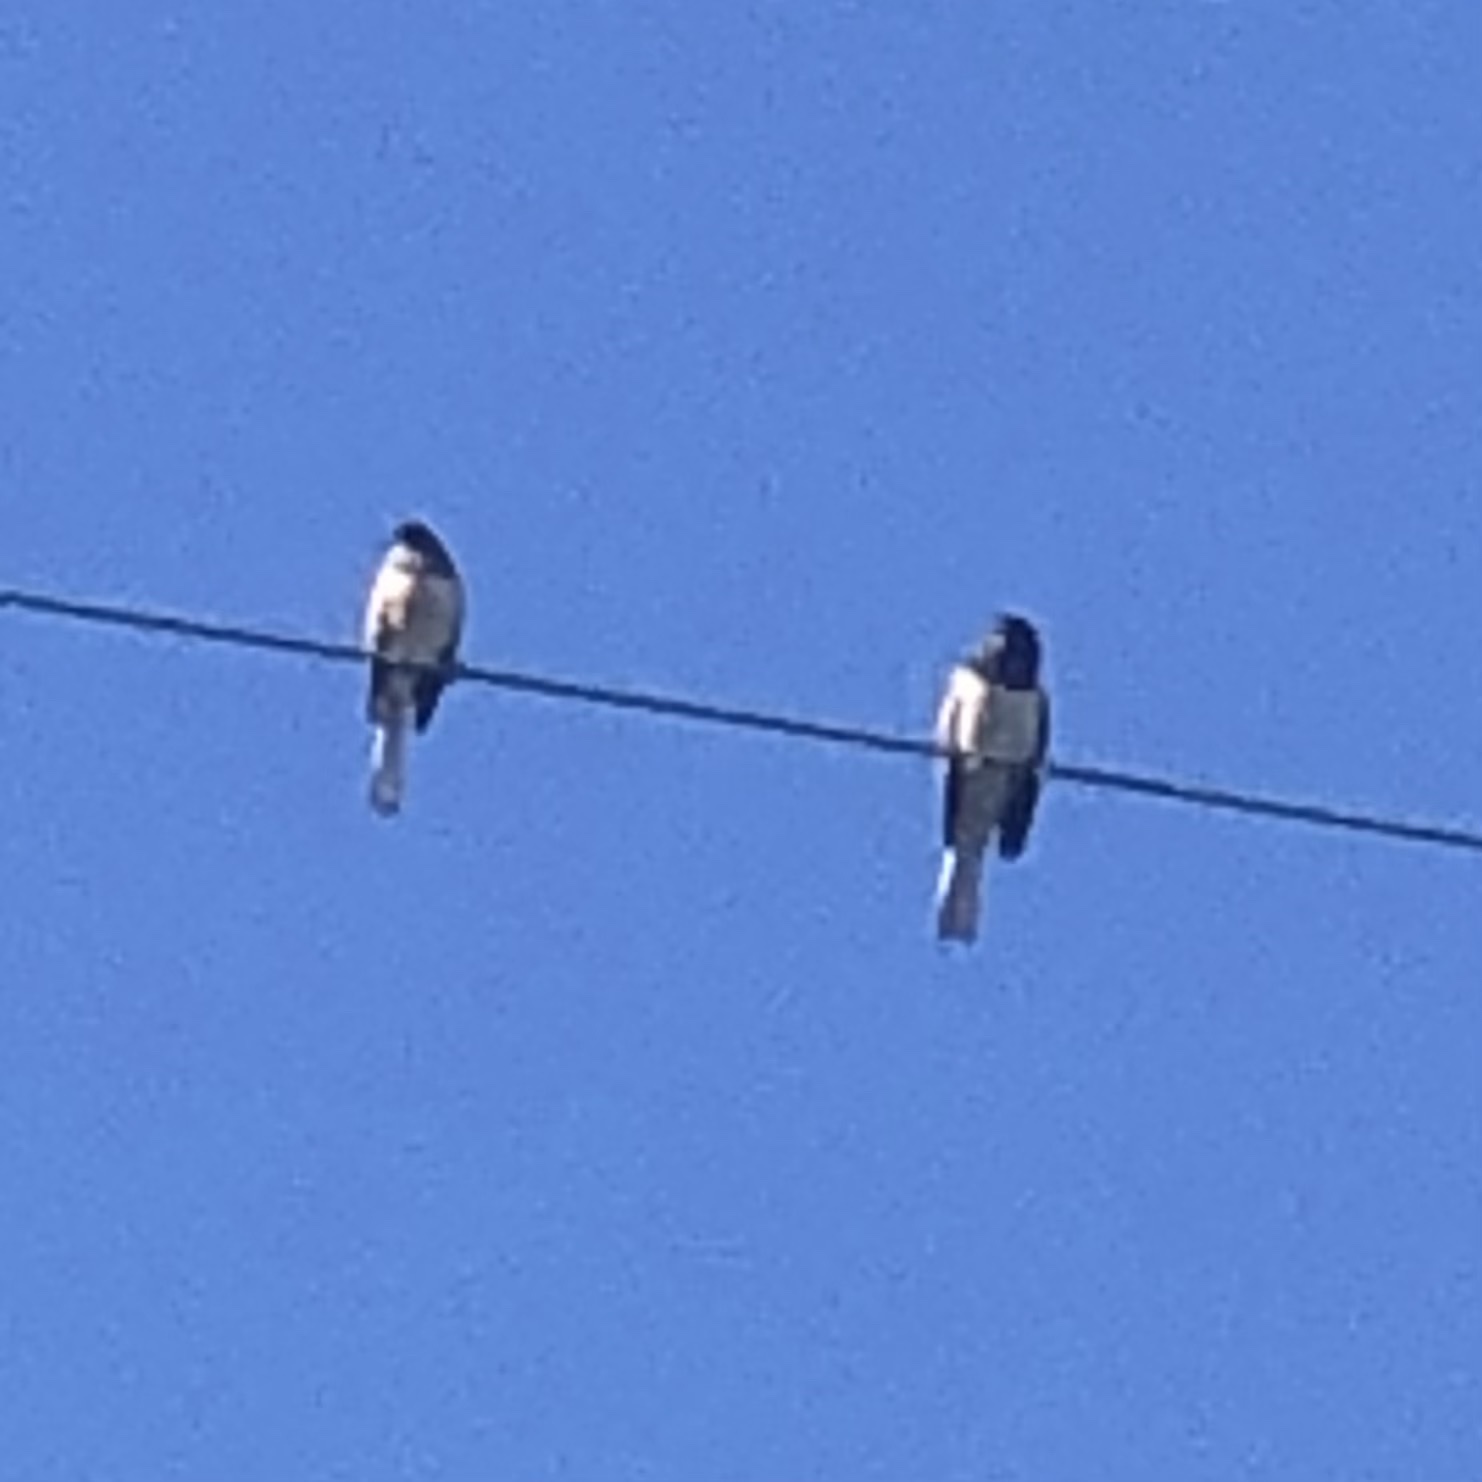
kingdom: Animalia
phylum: Chordata
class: Aves
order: Passeriformes
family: Passerellidae
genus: Junco
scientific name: Junco hyemalis
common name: Dark-eyed junco
